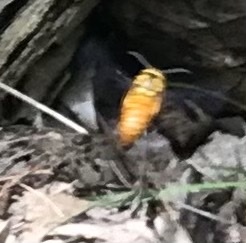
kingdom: Animalia
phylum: Arthropoda
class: Insecta
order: Hymenoptera
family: Vespidae
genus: Vespula
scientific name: Vespula squamosa
